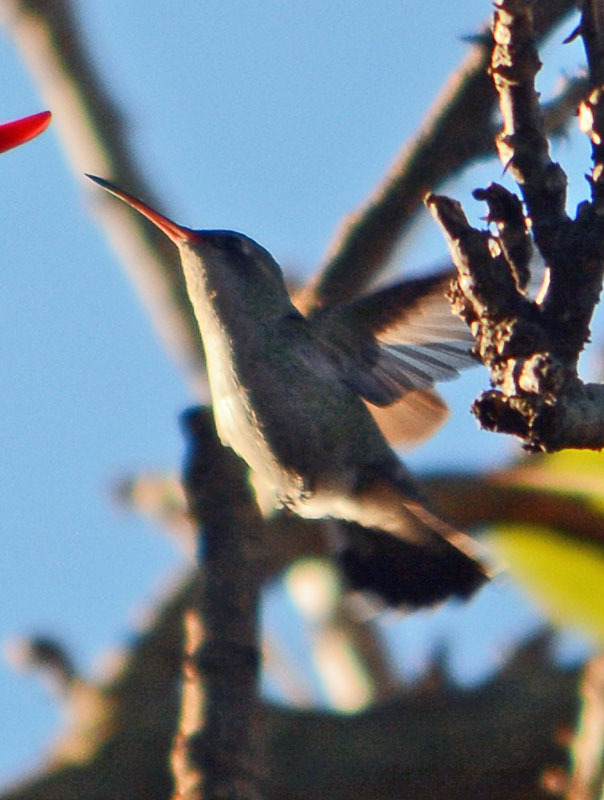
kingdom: Animalia
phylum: Chordata
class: Aves
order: Apodiformes
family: Trochilidae
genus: Cynanthus
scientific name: Cynanthus latirostris
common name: Broad-billed hummingbird
